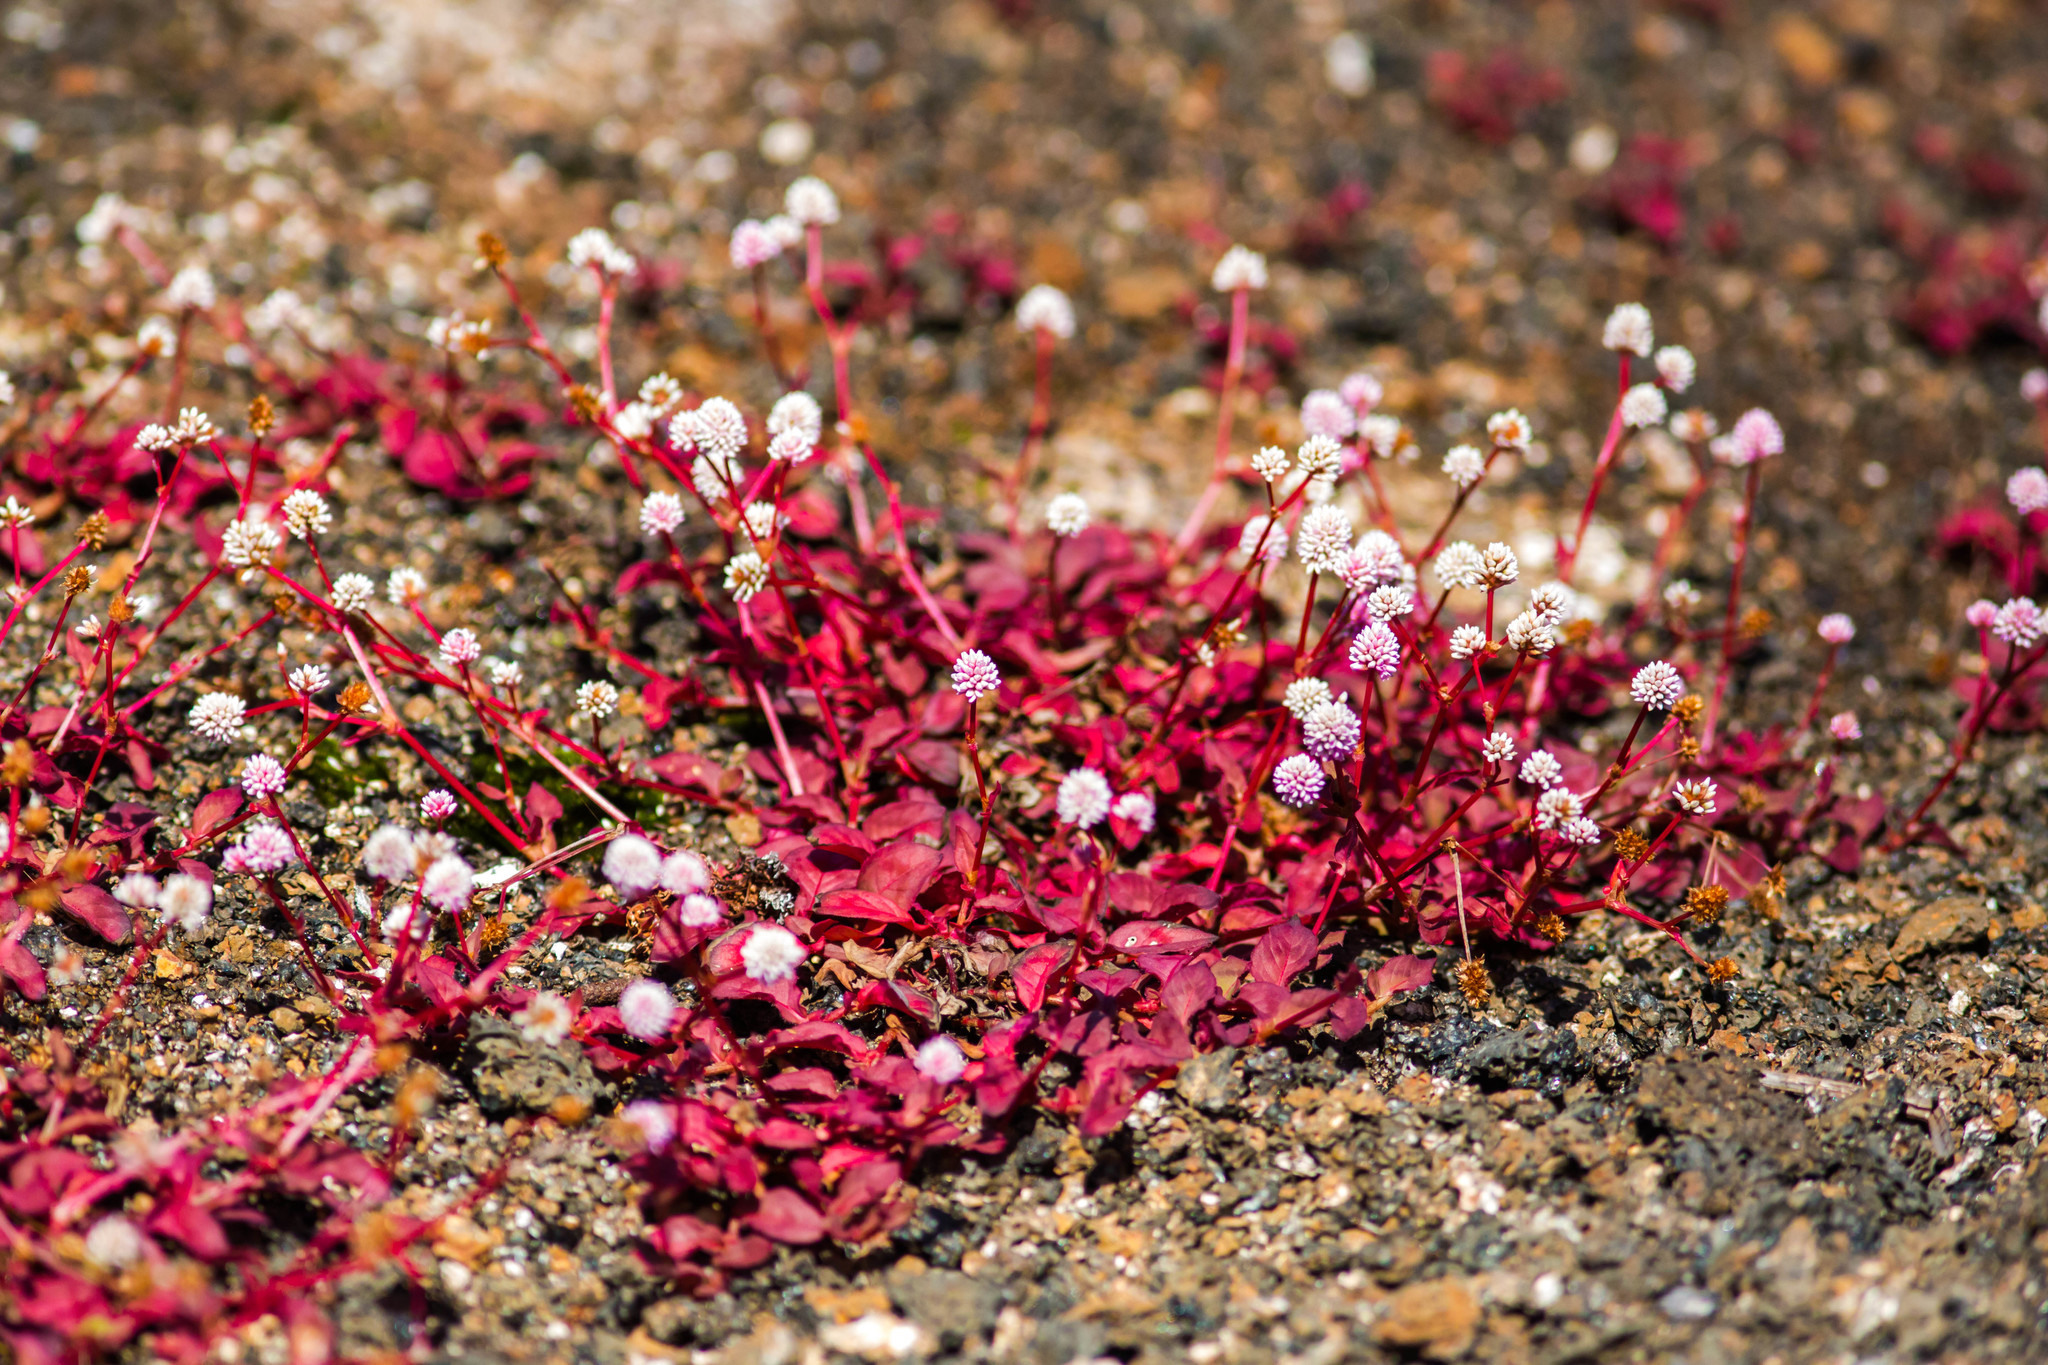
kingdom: Plantae
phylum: Tracheophyta
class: Magnoliopsida
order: Caryophyllales
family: Polygonaceae
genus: Persicaria
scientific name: Persicaria capitata
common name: Pinkhead smartweed
